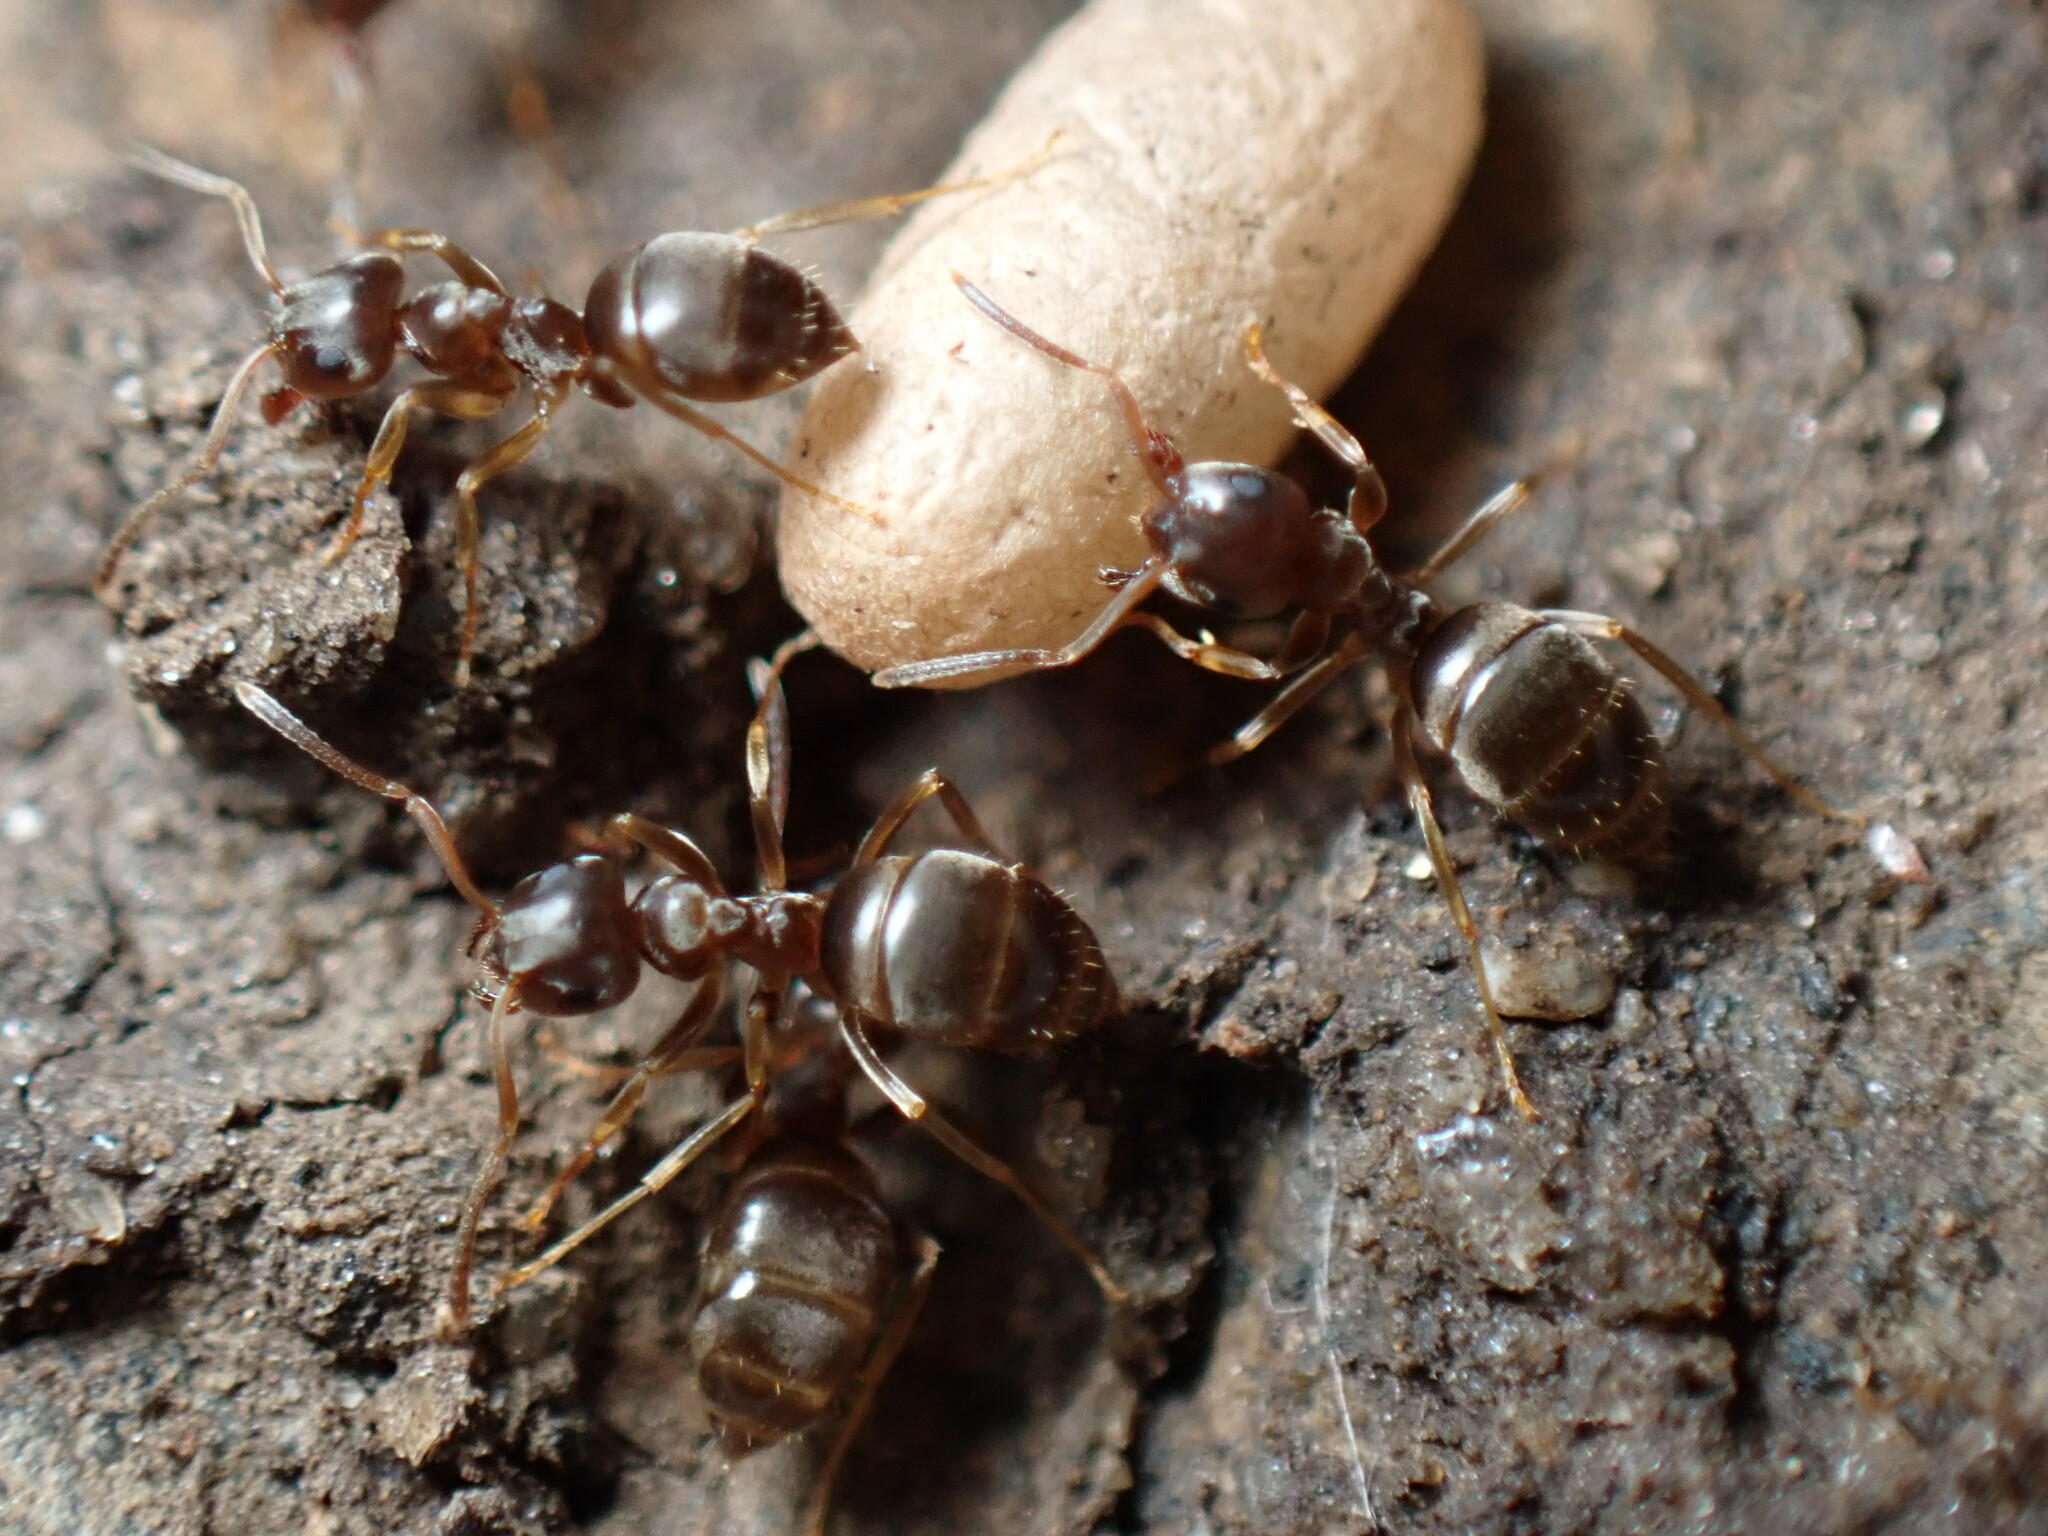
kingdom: Animalia
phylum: Arthropoda
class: Insecta
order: Hymenoptera
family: Formicidae
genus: Lasius
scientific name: Lasius americanus
